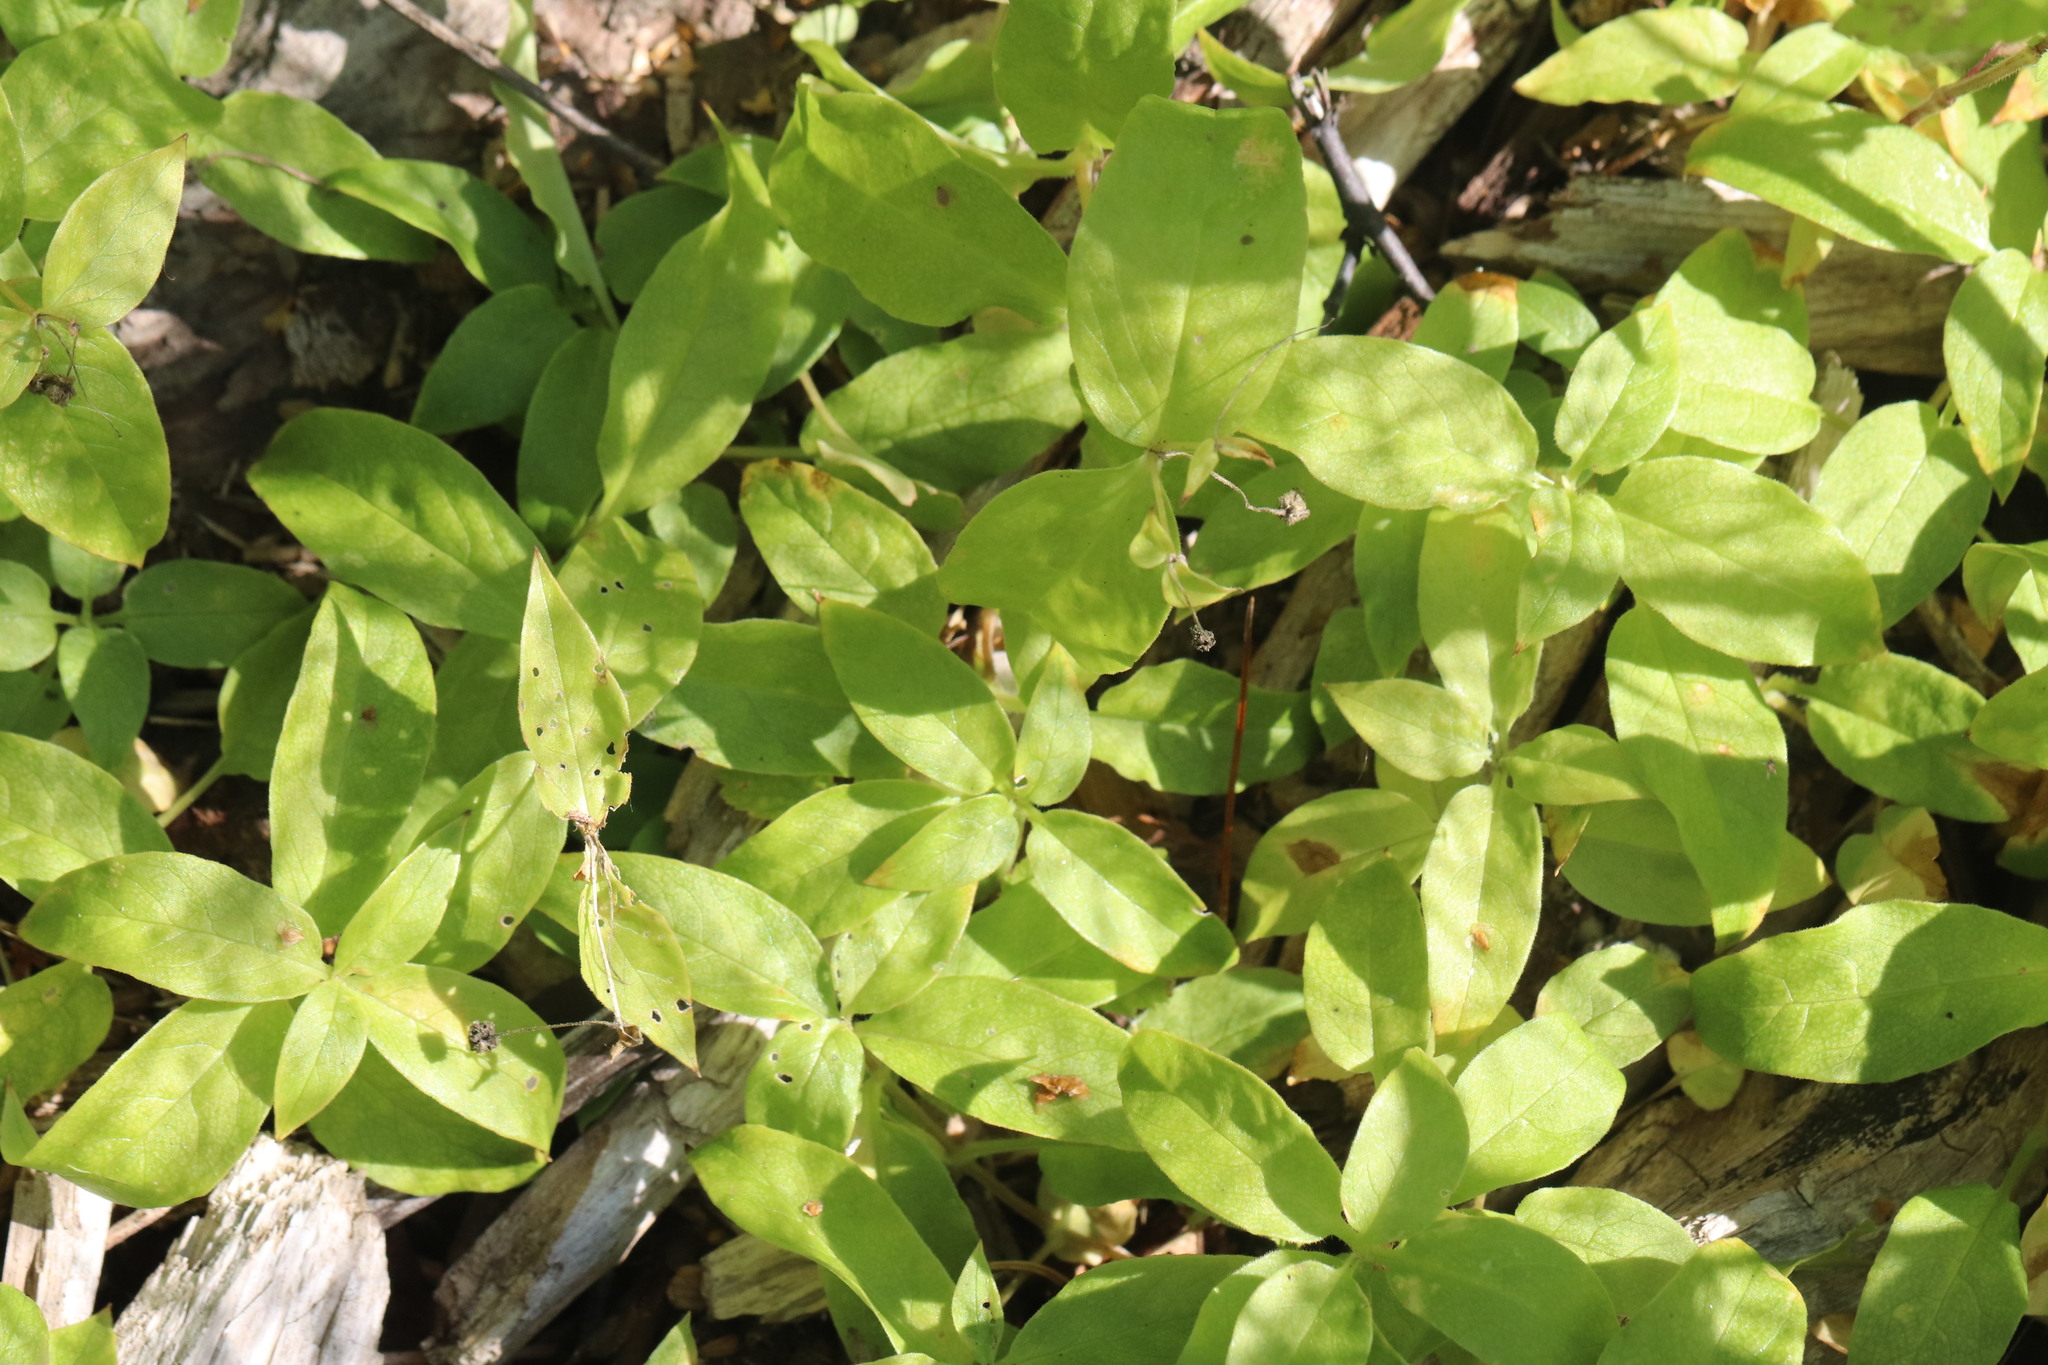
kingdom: Plantae
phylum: Tracheophyta
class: Magnoliopsida
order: Caryophyllales
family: Caryophyllaceae
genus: Stellaria
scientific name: Stellaria bungeana
